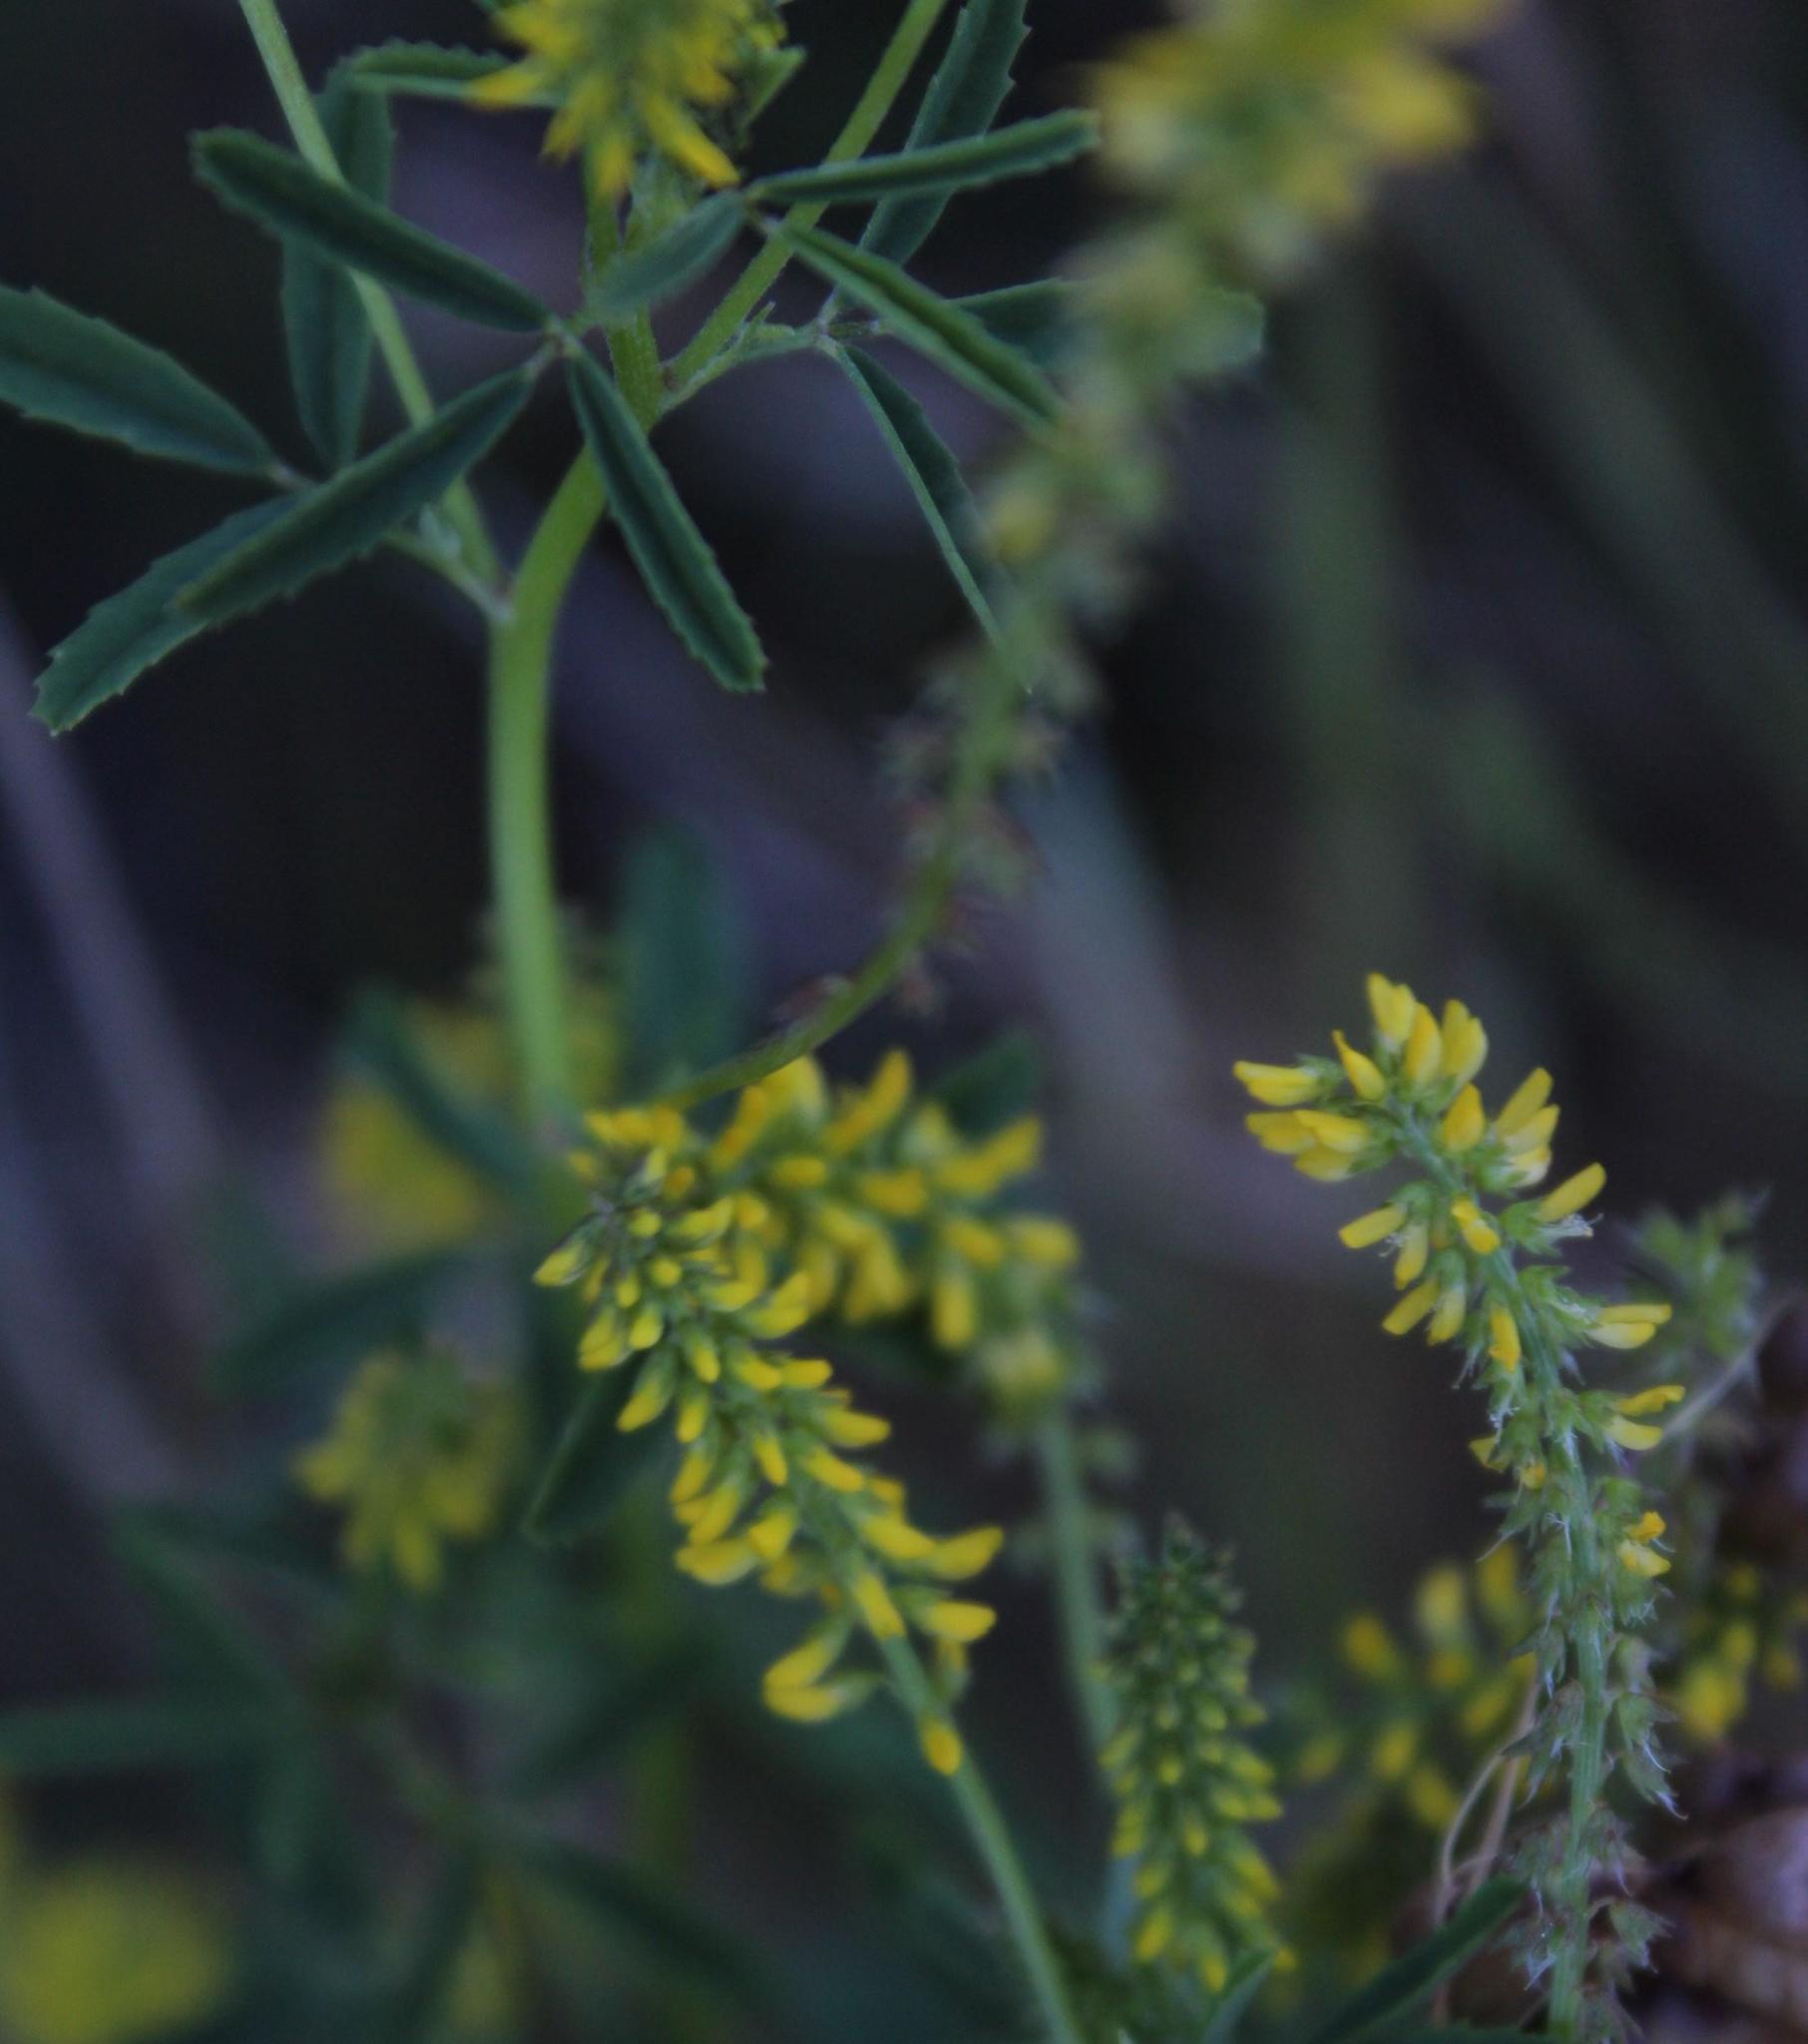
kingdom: Plantae
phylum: Tracheophyta
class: Magnoliopsida
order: Fabales
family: Fabaceae
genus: Melilotus
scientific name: Melilotus indicus
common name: Small melilot
